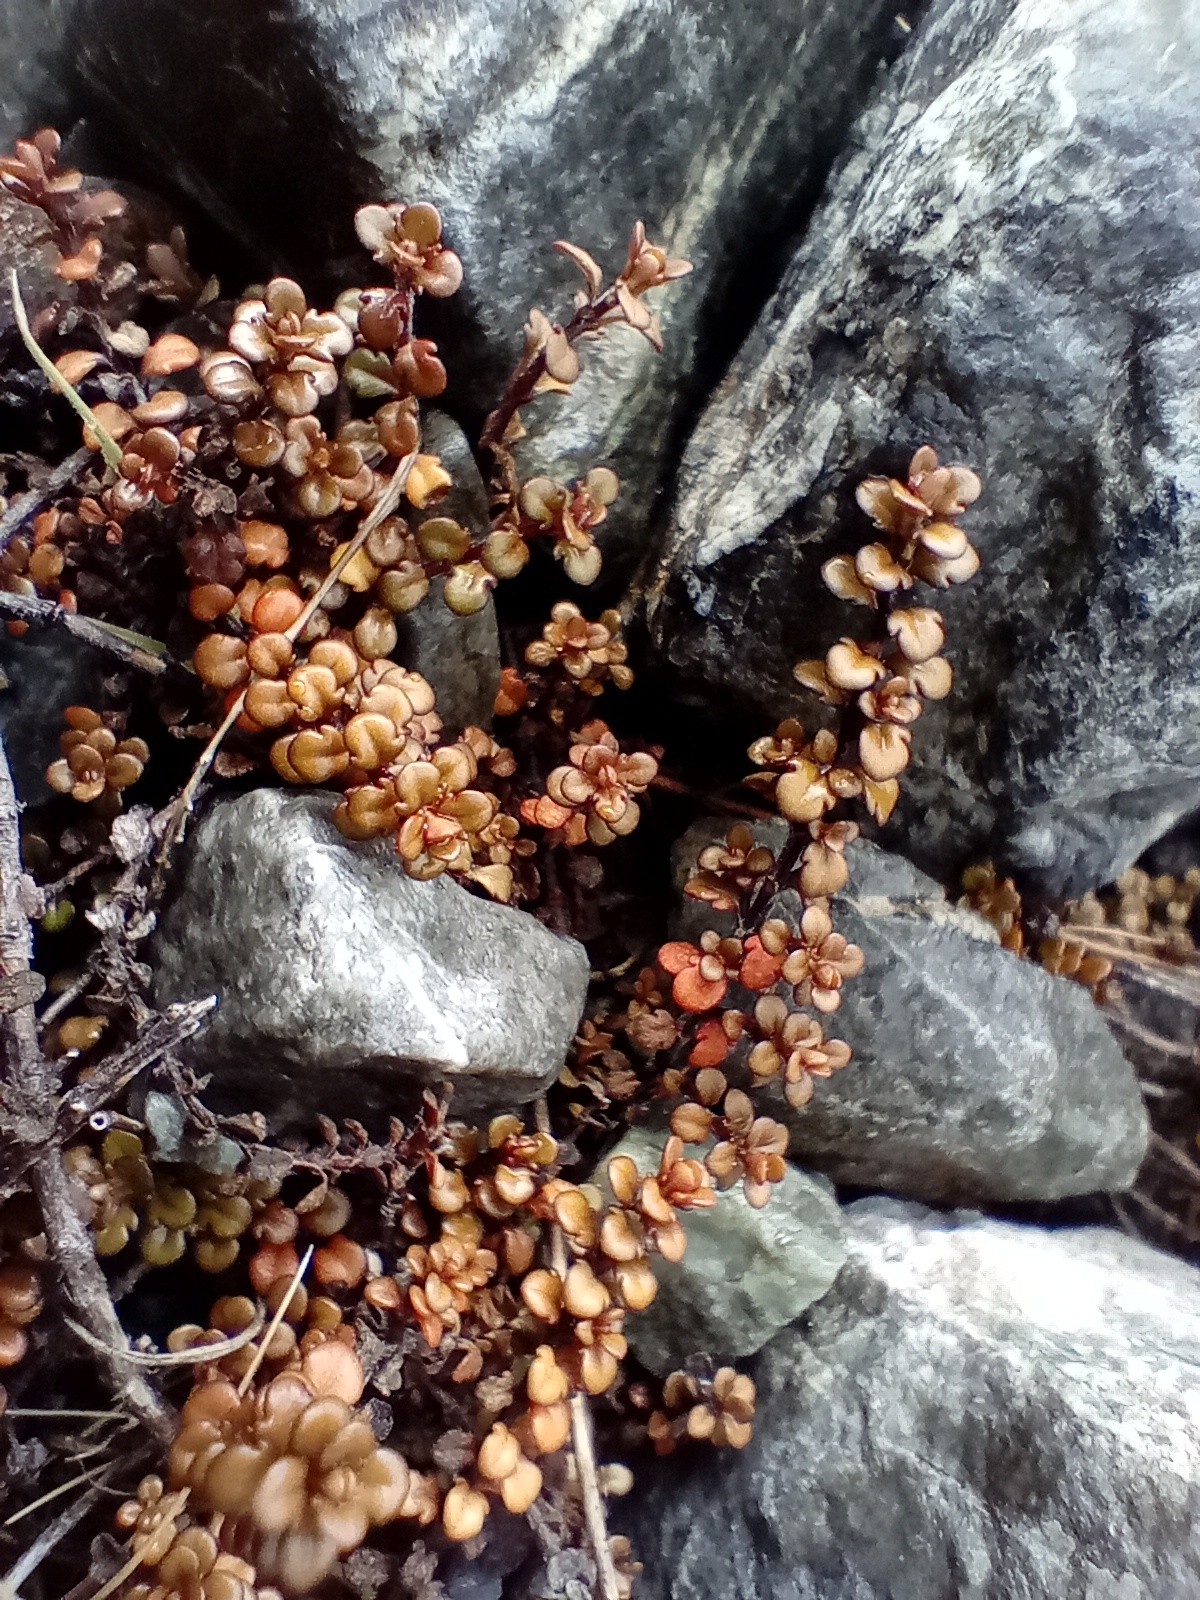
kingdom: Plantae
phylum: Tracheophyta
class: Magnoliopsida
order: Lamiales
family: Plantaginaceae
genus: Veronica
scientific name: Veronica decora
